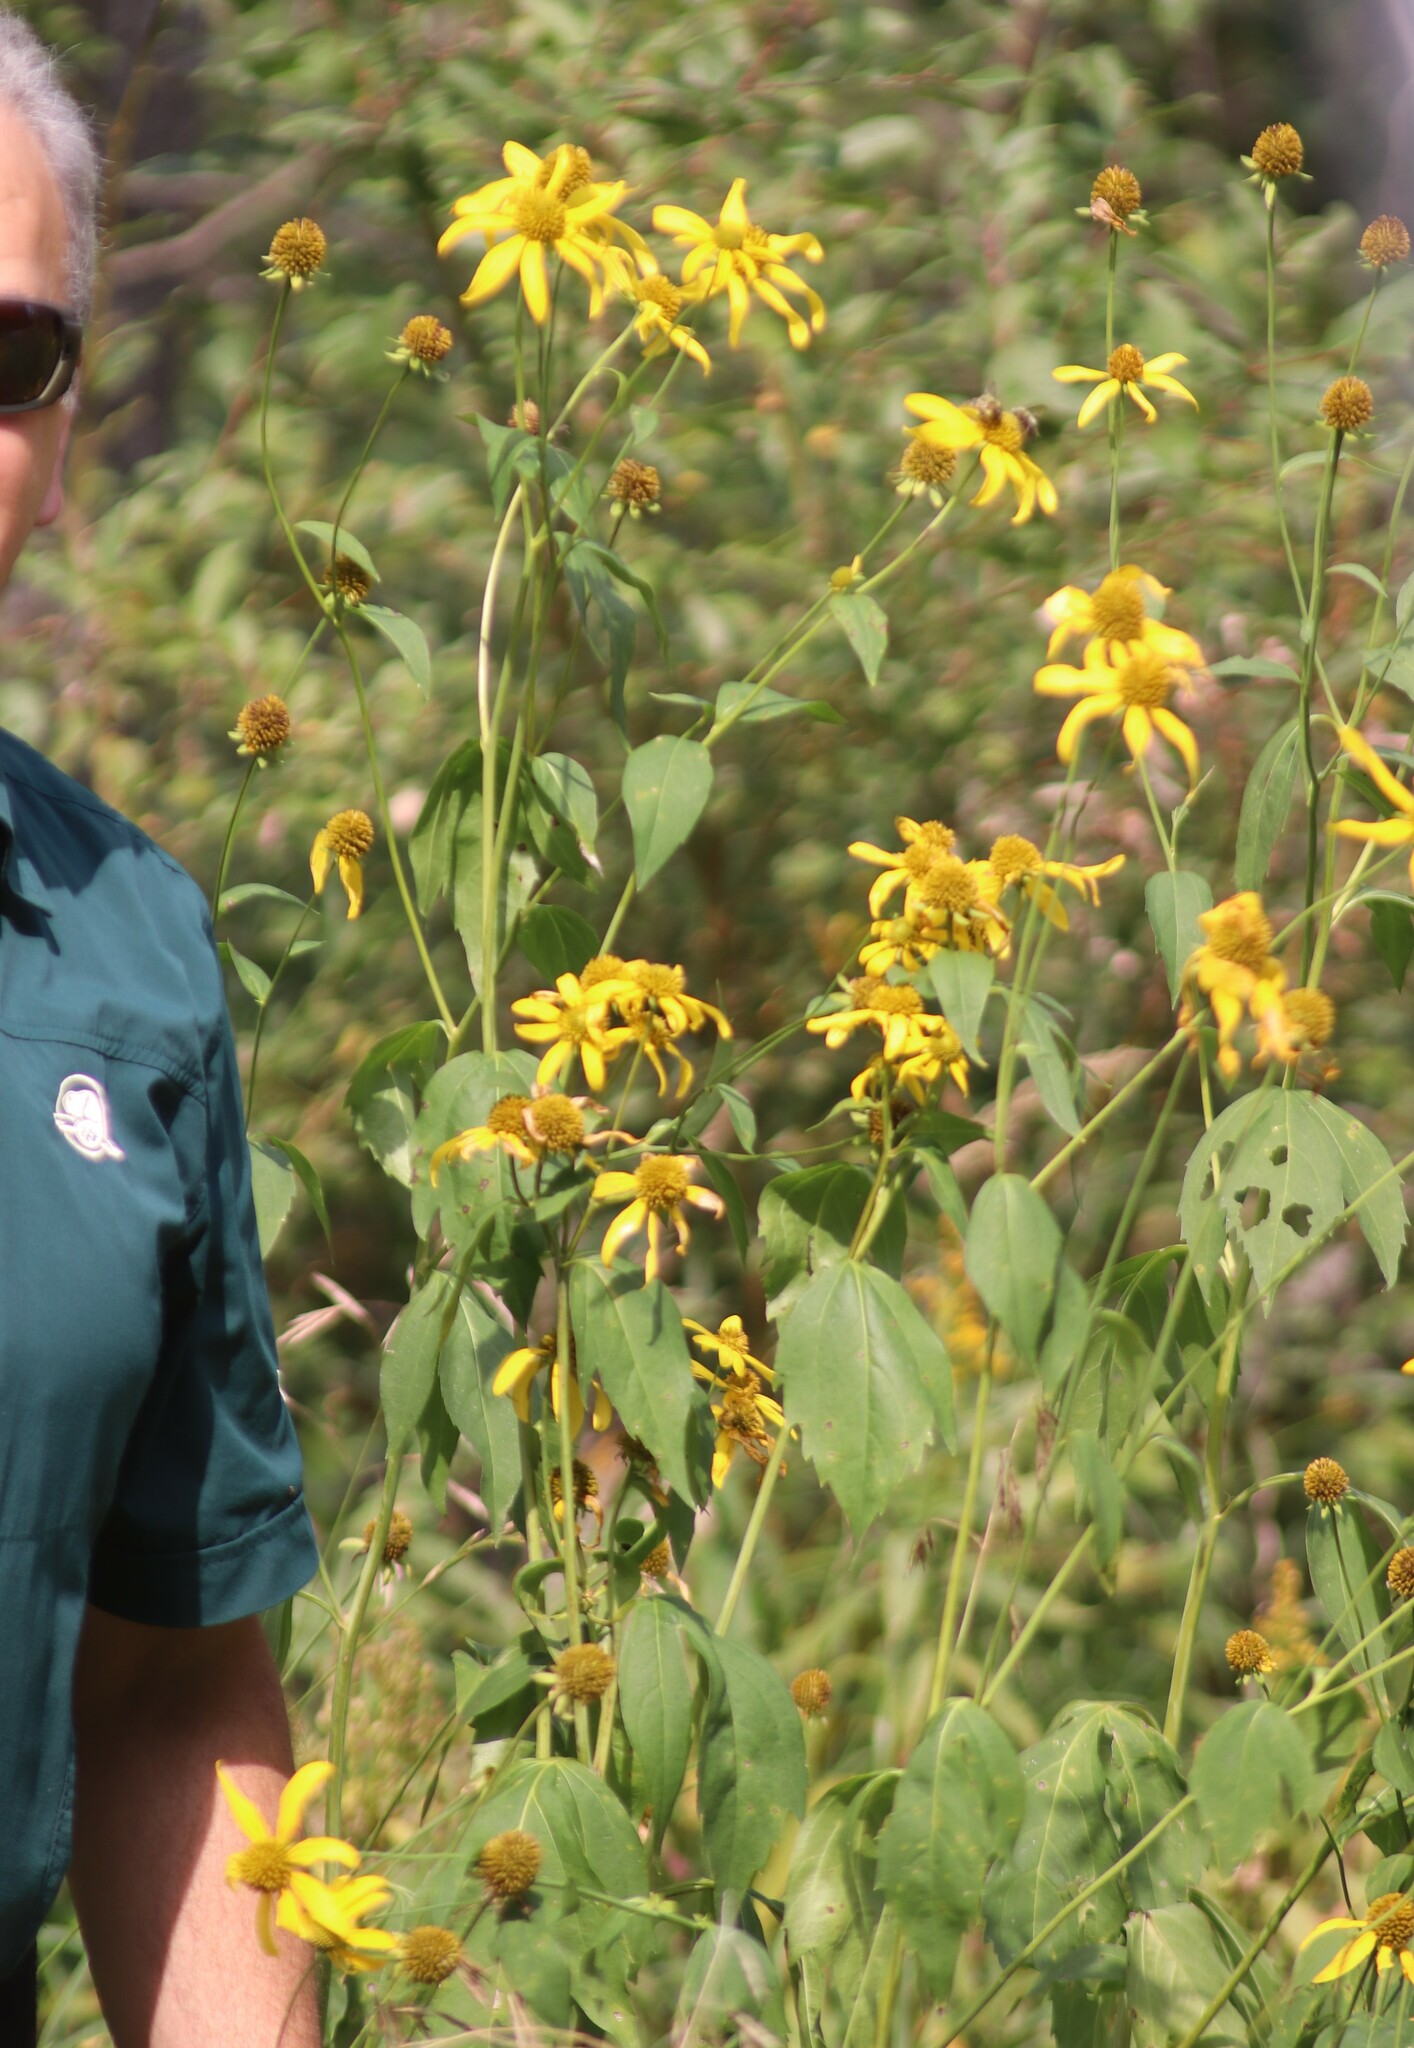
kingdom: Plantae
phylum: Tracheophyta
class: Magnoliopsida
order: Asterales
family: Asteraceae
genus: Rudbeckia
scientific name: Rudbeckia laciniata
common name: Coneflower
